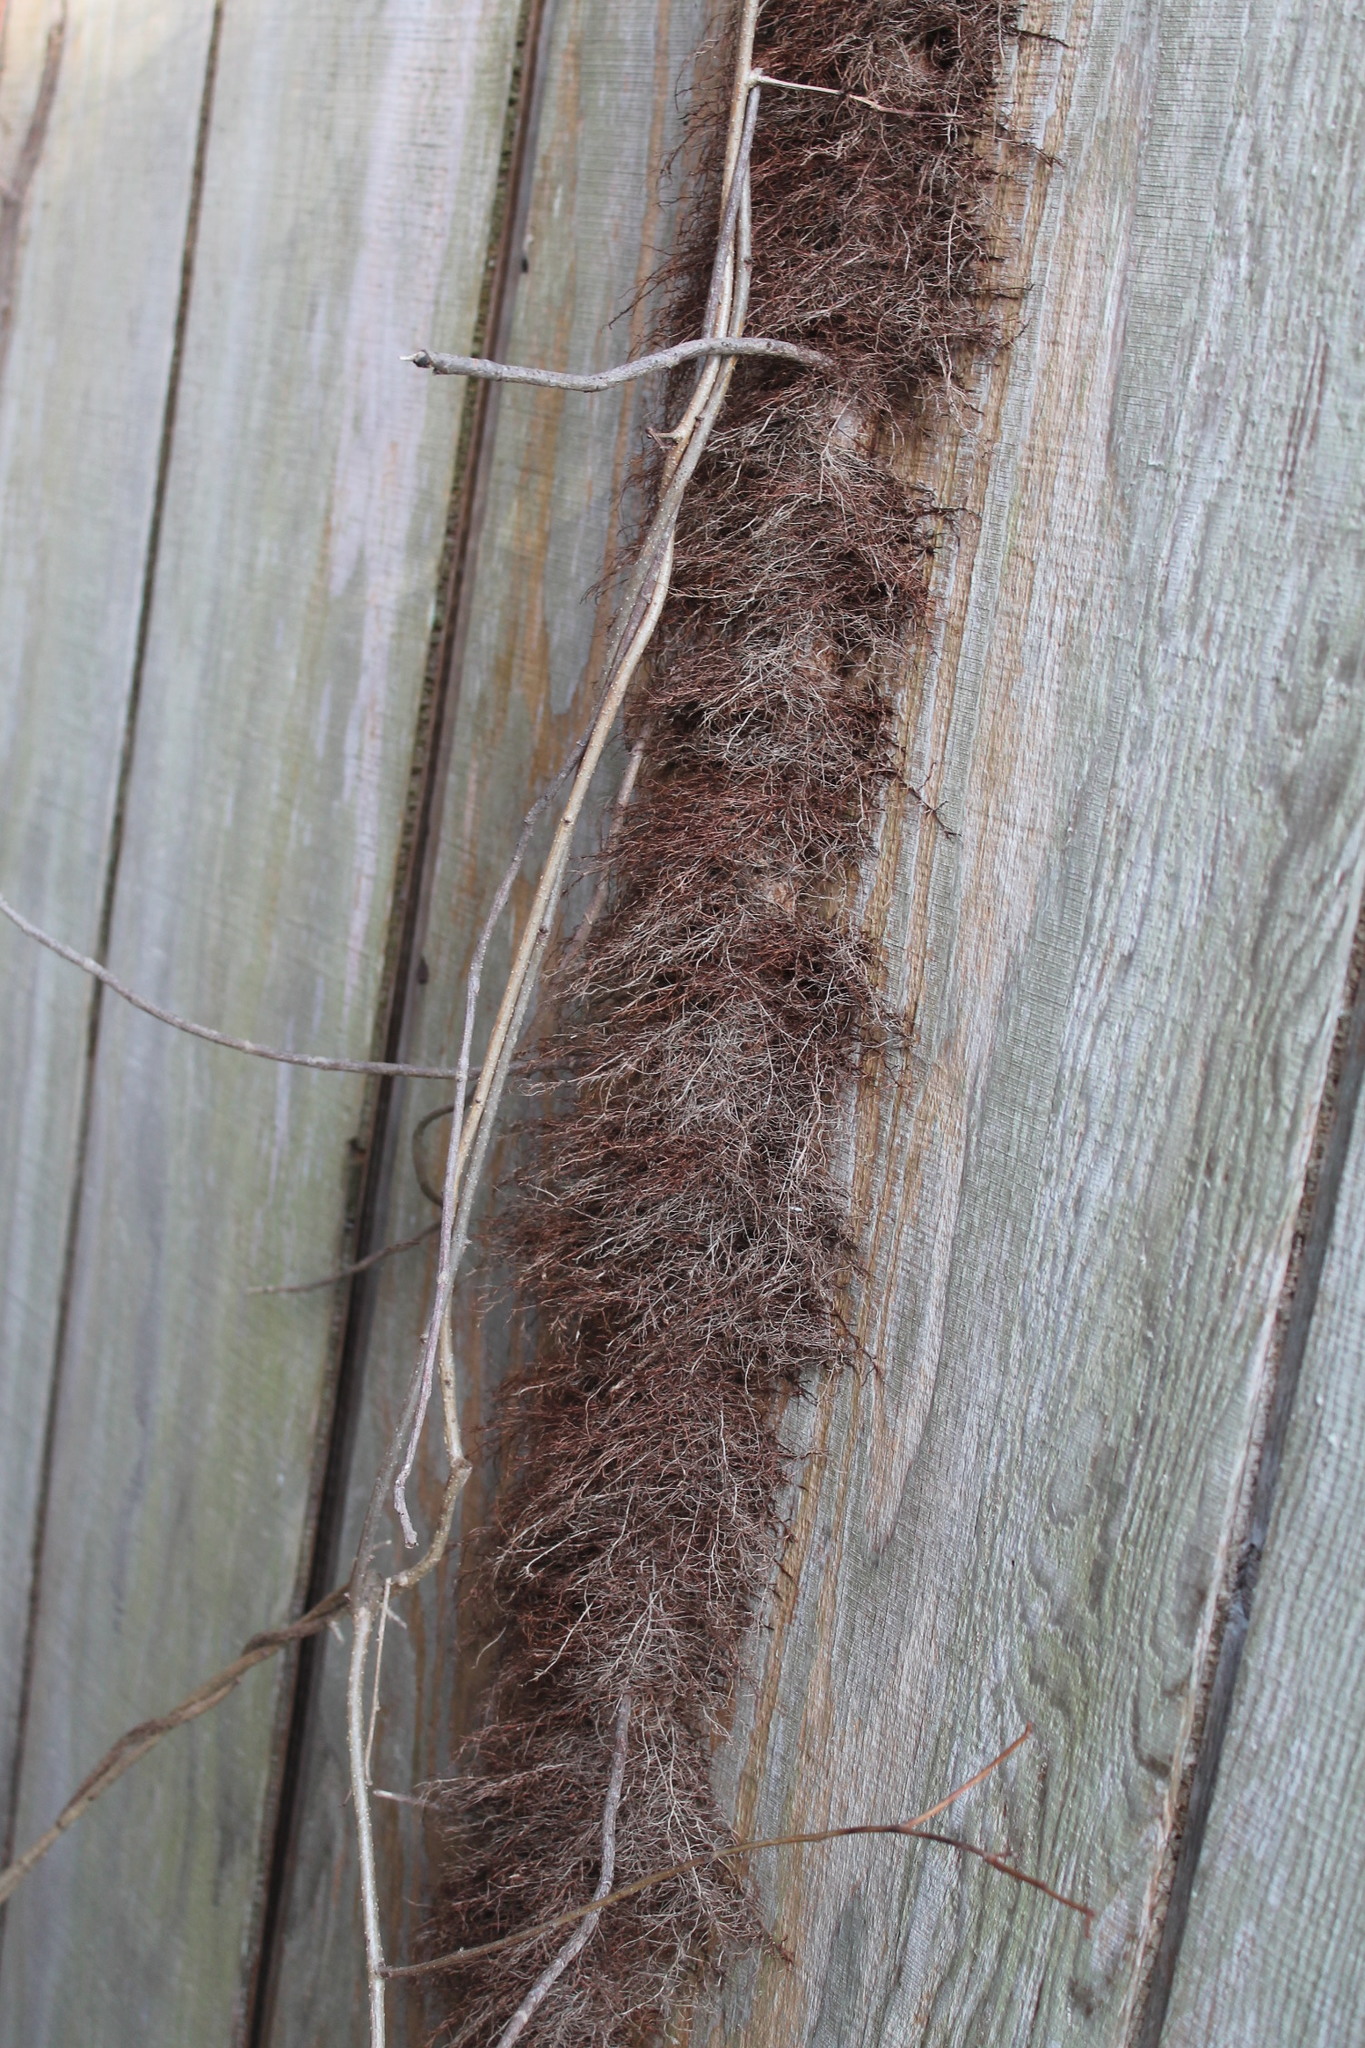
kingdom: Plantae
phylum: Tracheophyta
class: Magnoliopsida
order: Sapindales
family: Anacardiaceae
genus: Toxicodendron
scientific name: Toxicodendron radicans
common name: Poison ivy
